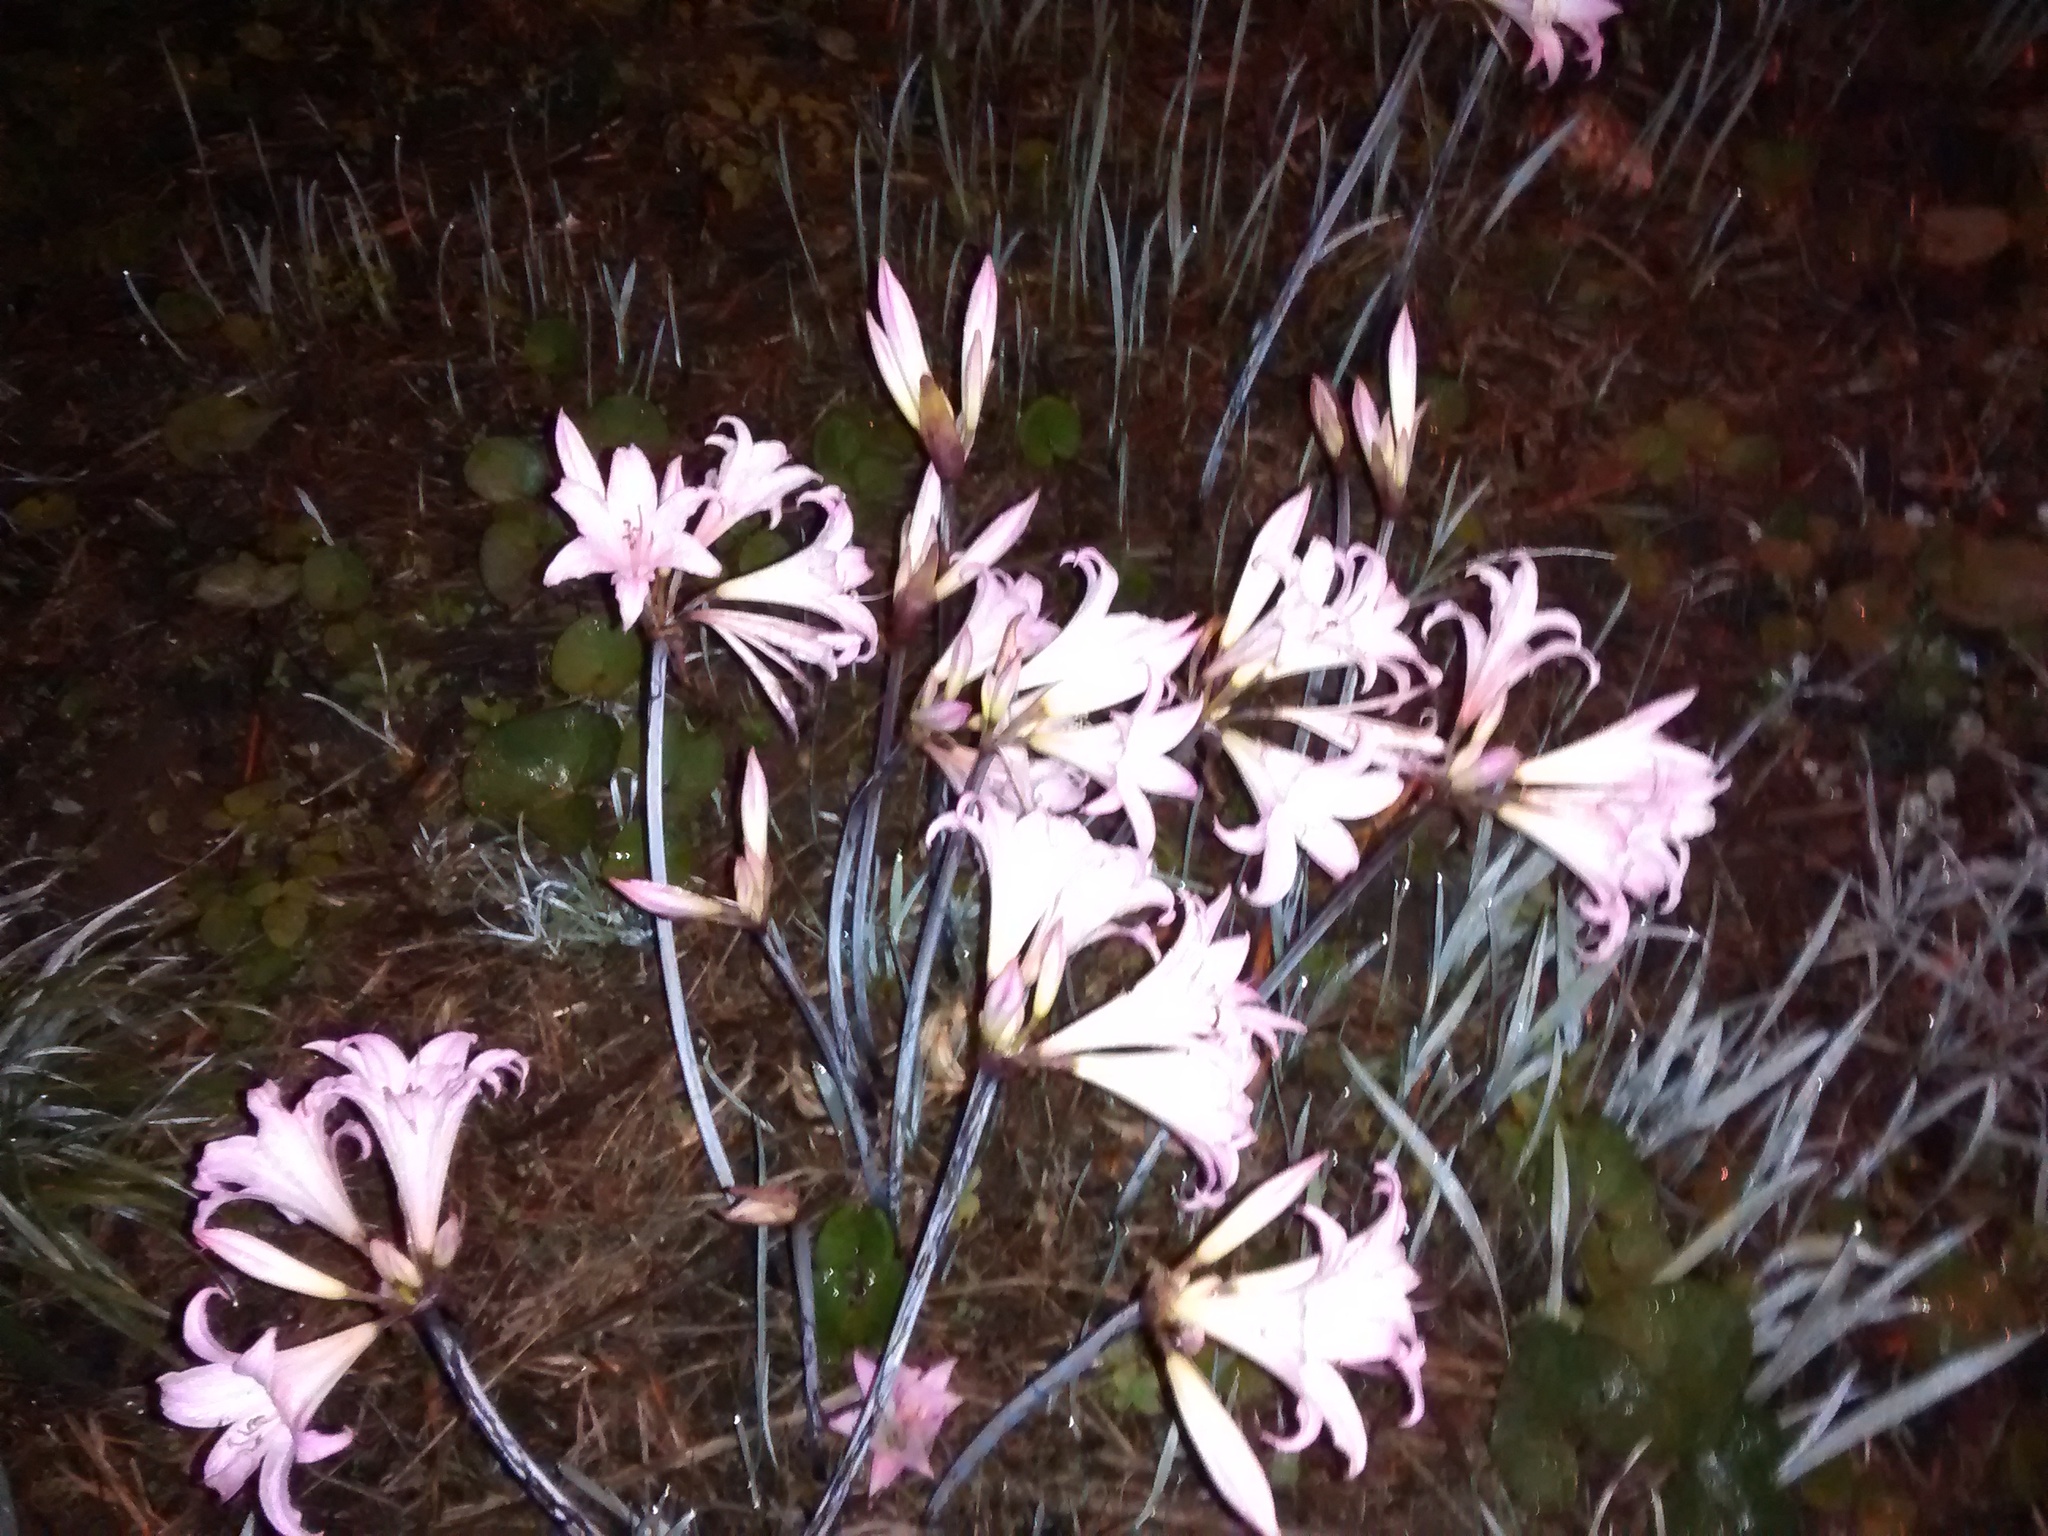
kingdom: Plantae
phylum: Tracheophyta
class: Liliopsida
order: Asparagales
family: Amaryllidaceae
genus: Amaryllis
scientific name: Amaryllis belladonna
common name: Jersey lily
